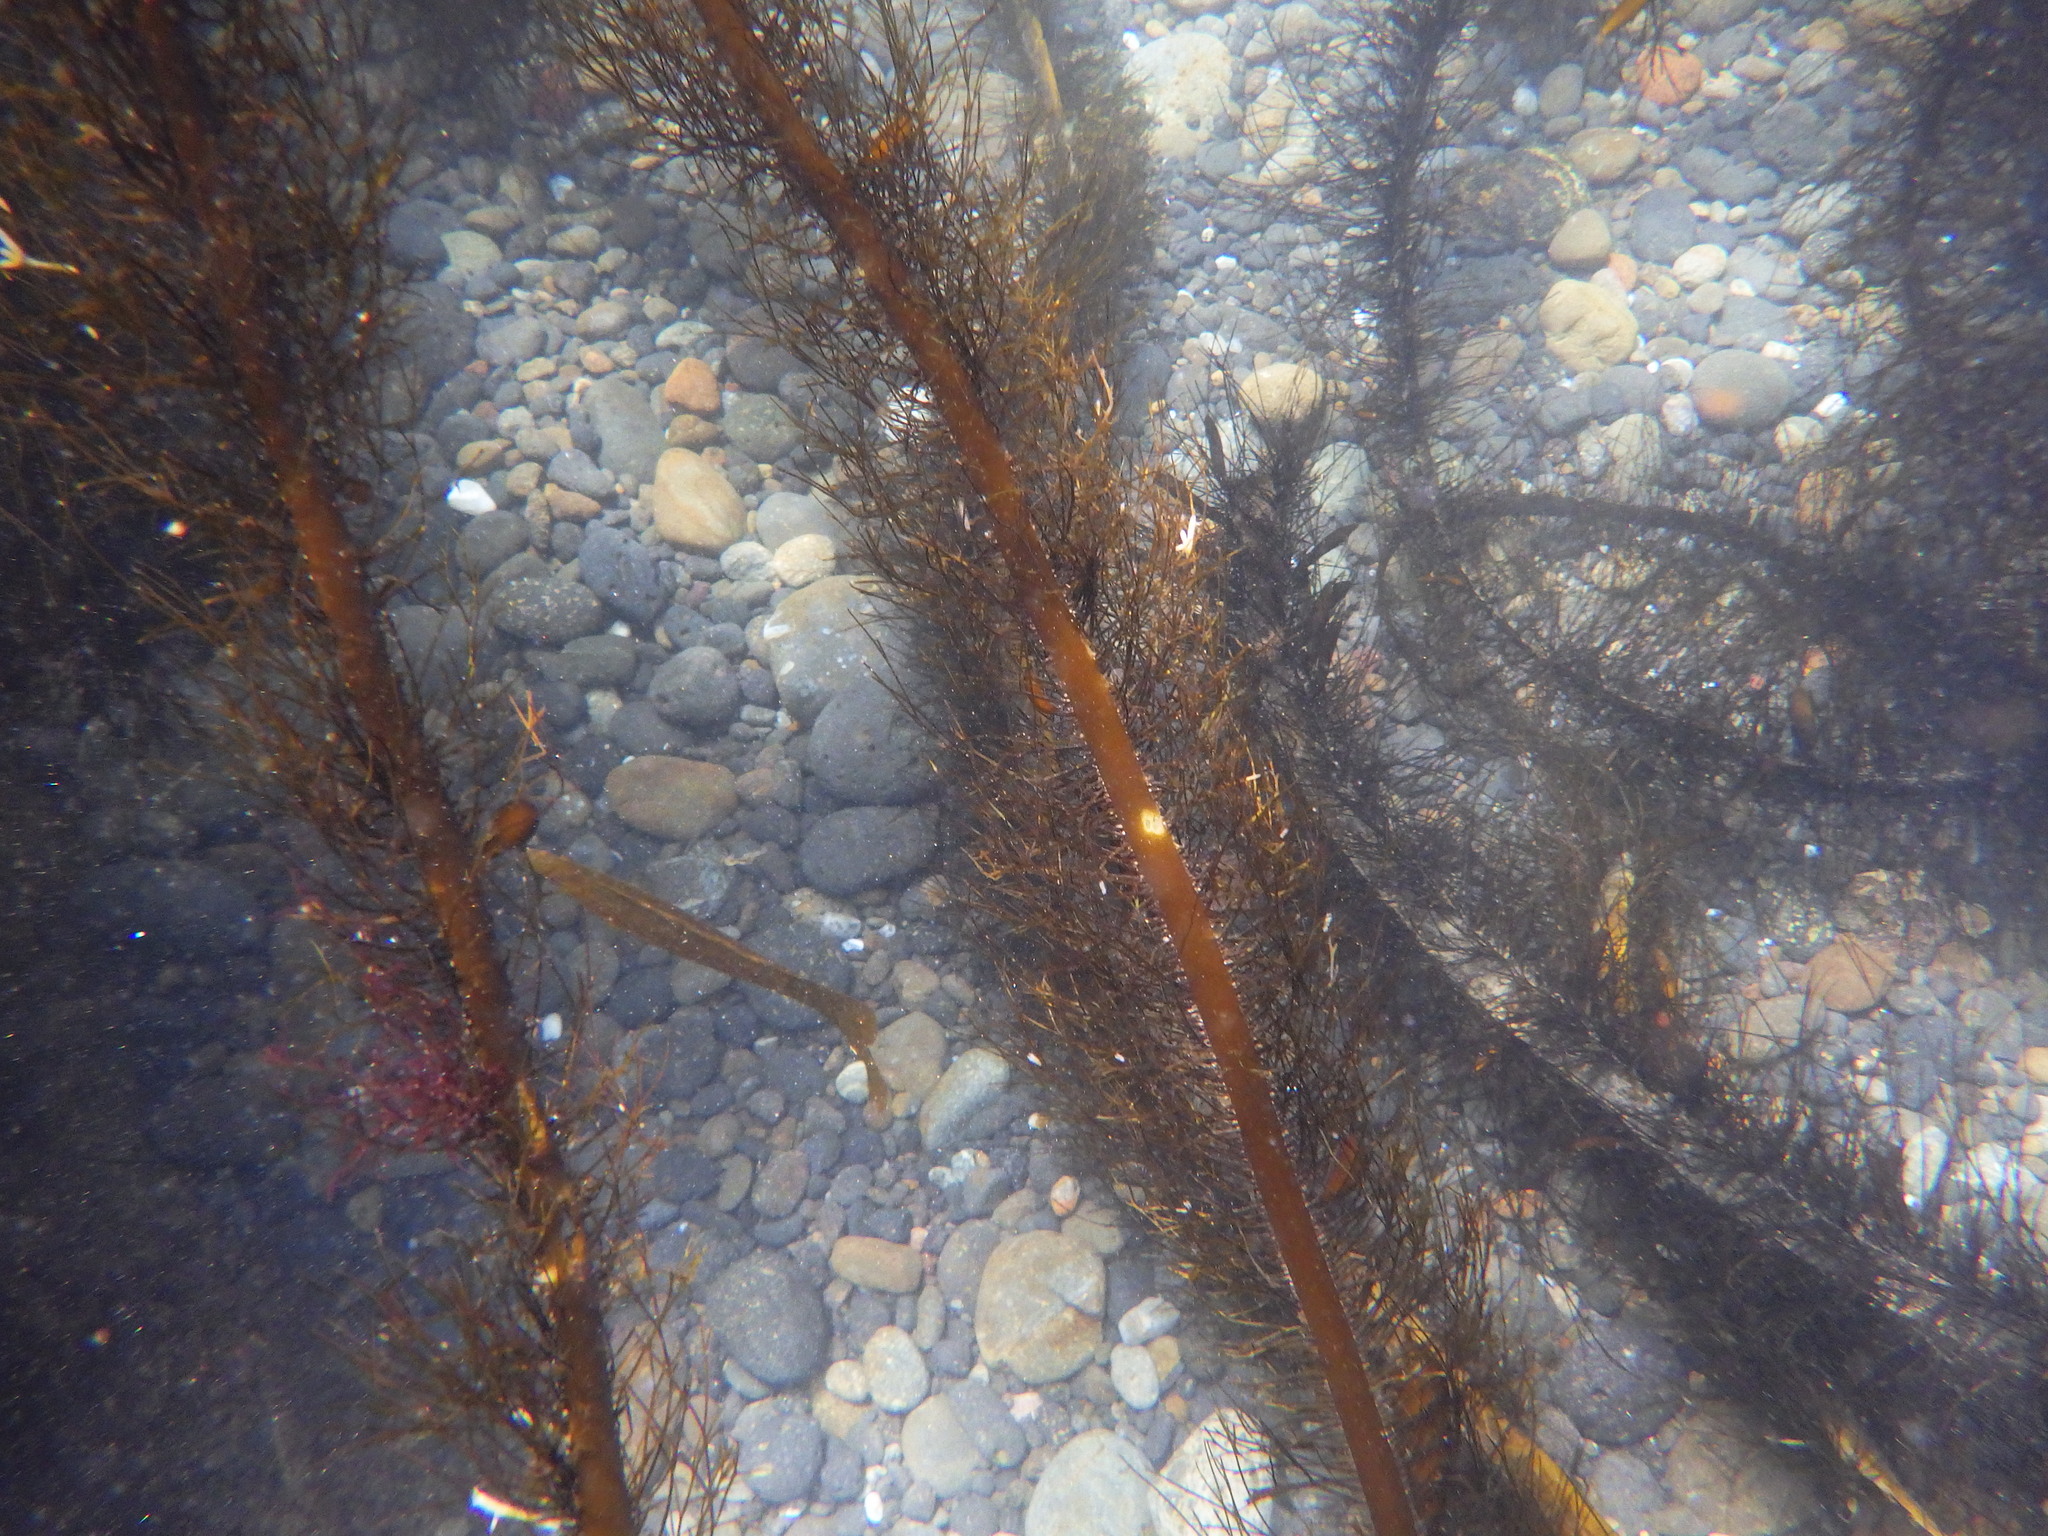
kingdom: Chromista
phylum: Ochrophyta
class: Phaeophyceae
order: Laminariales
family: Lessoniaceae
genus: Egregia
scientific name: Egregia menziesii
